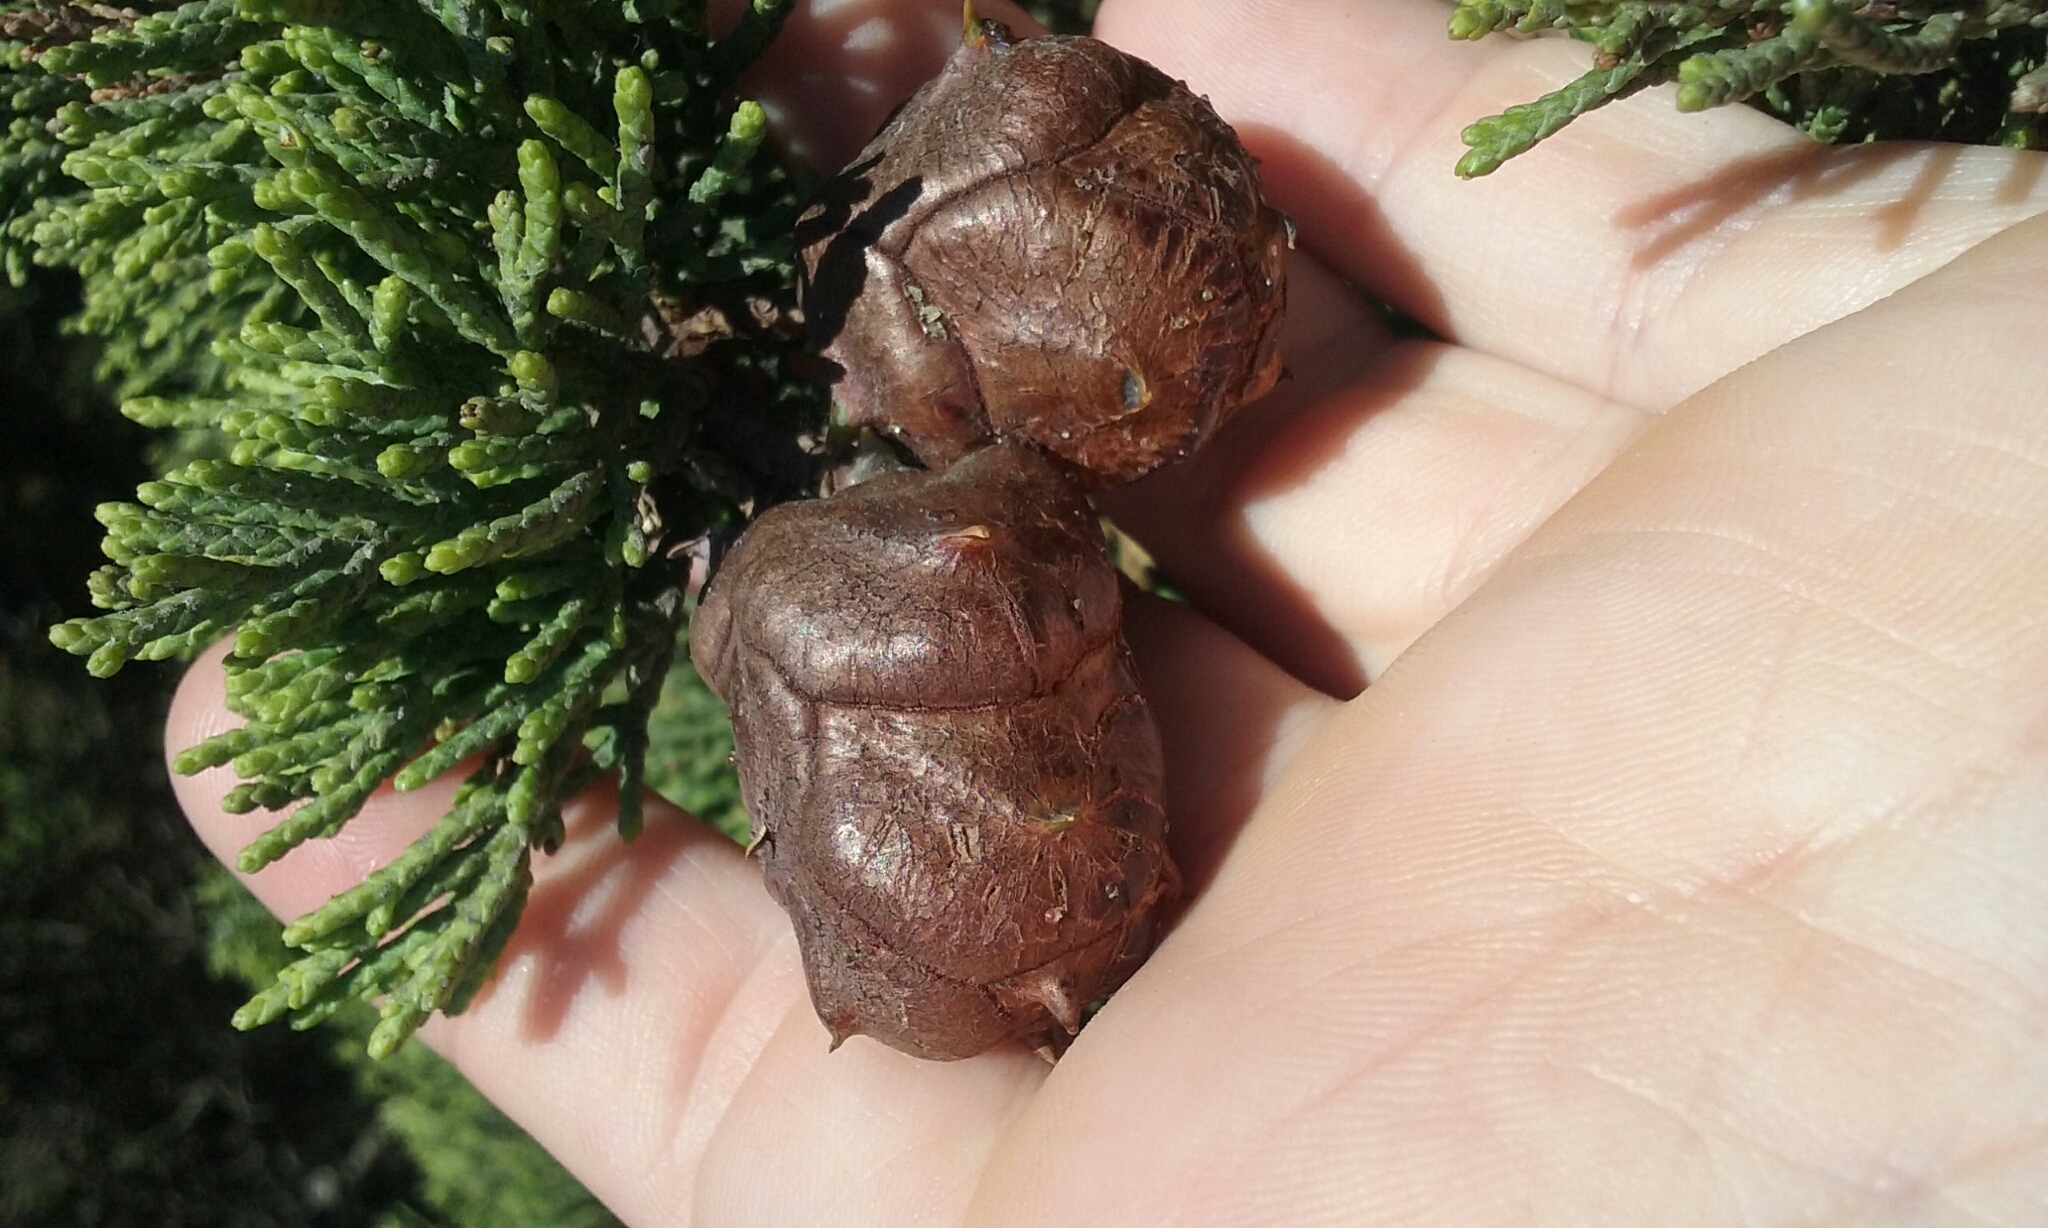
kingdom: Plantae
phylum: Tracheophyta
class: Pinopsida
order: Pinales
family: Cupressaceae
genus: Cupressus
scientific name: Cupressus macrocarpa
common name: Monterey cypress
